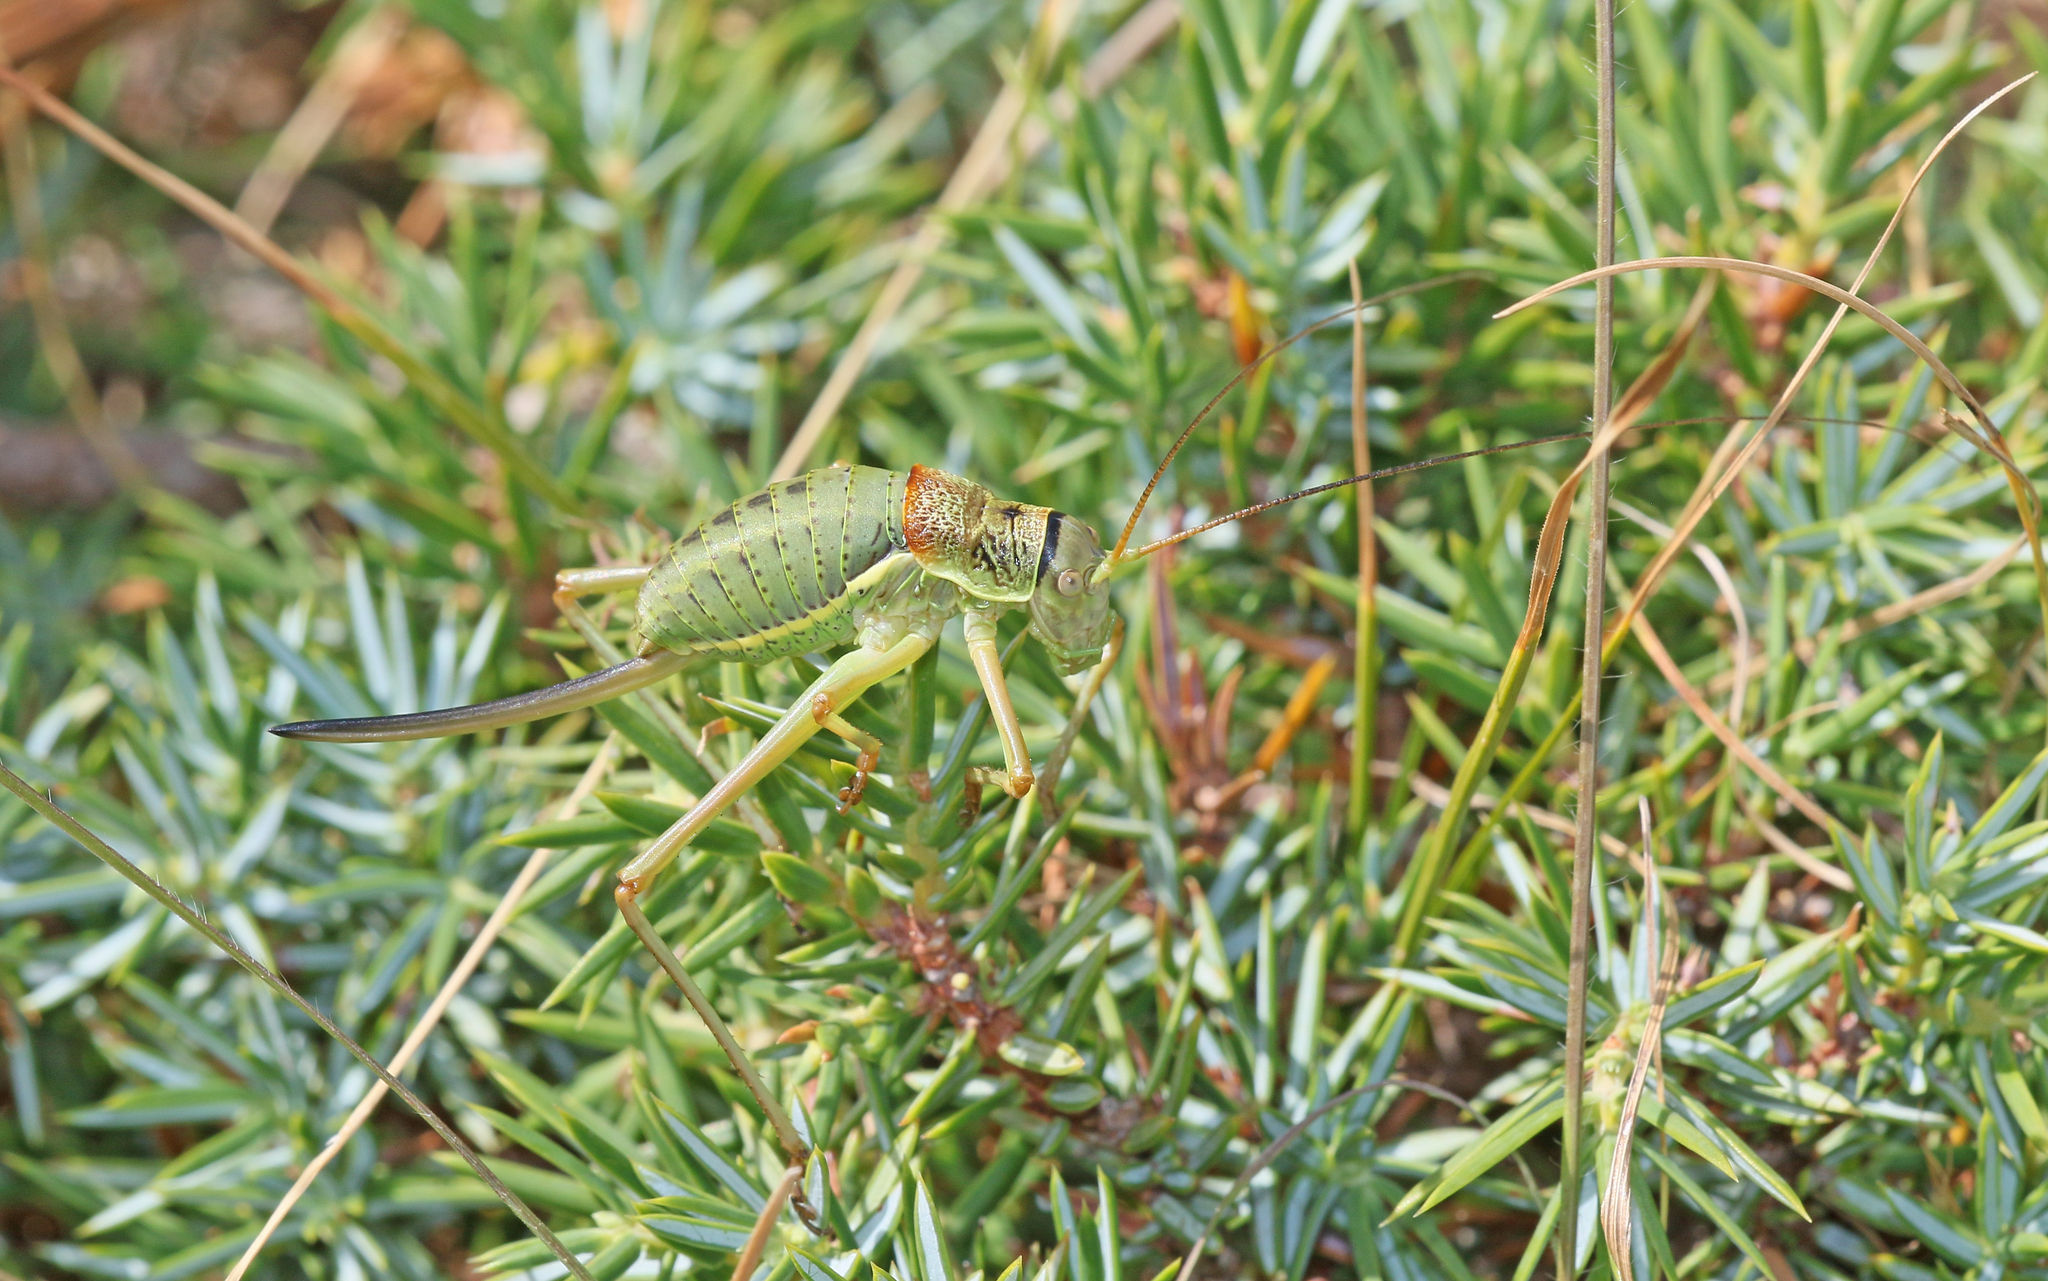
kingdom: Animalia
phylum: Arthropoda
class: Insecta
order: Orthoptera
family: Tettigoniidae
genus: Ephippiger
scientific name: Ephippiger diurnus
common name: Western saddle bush-cricket
